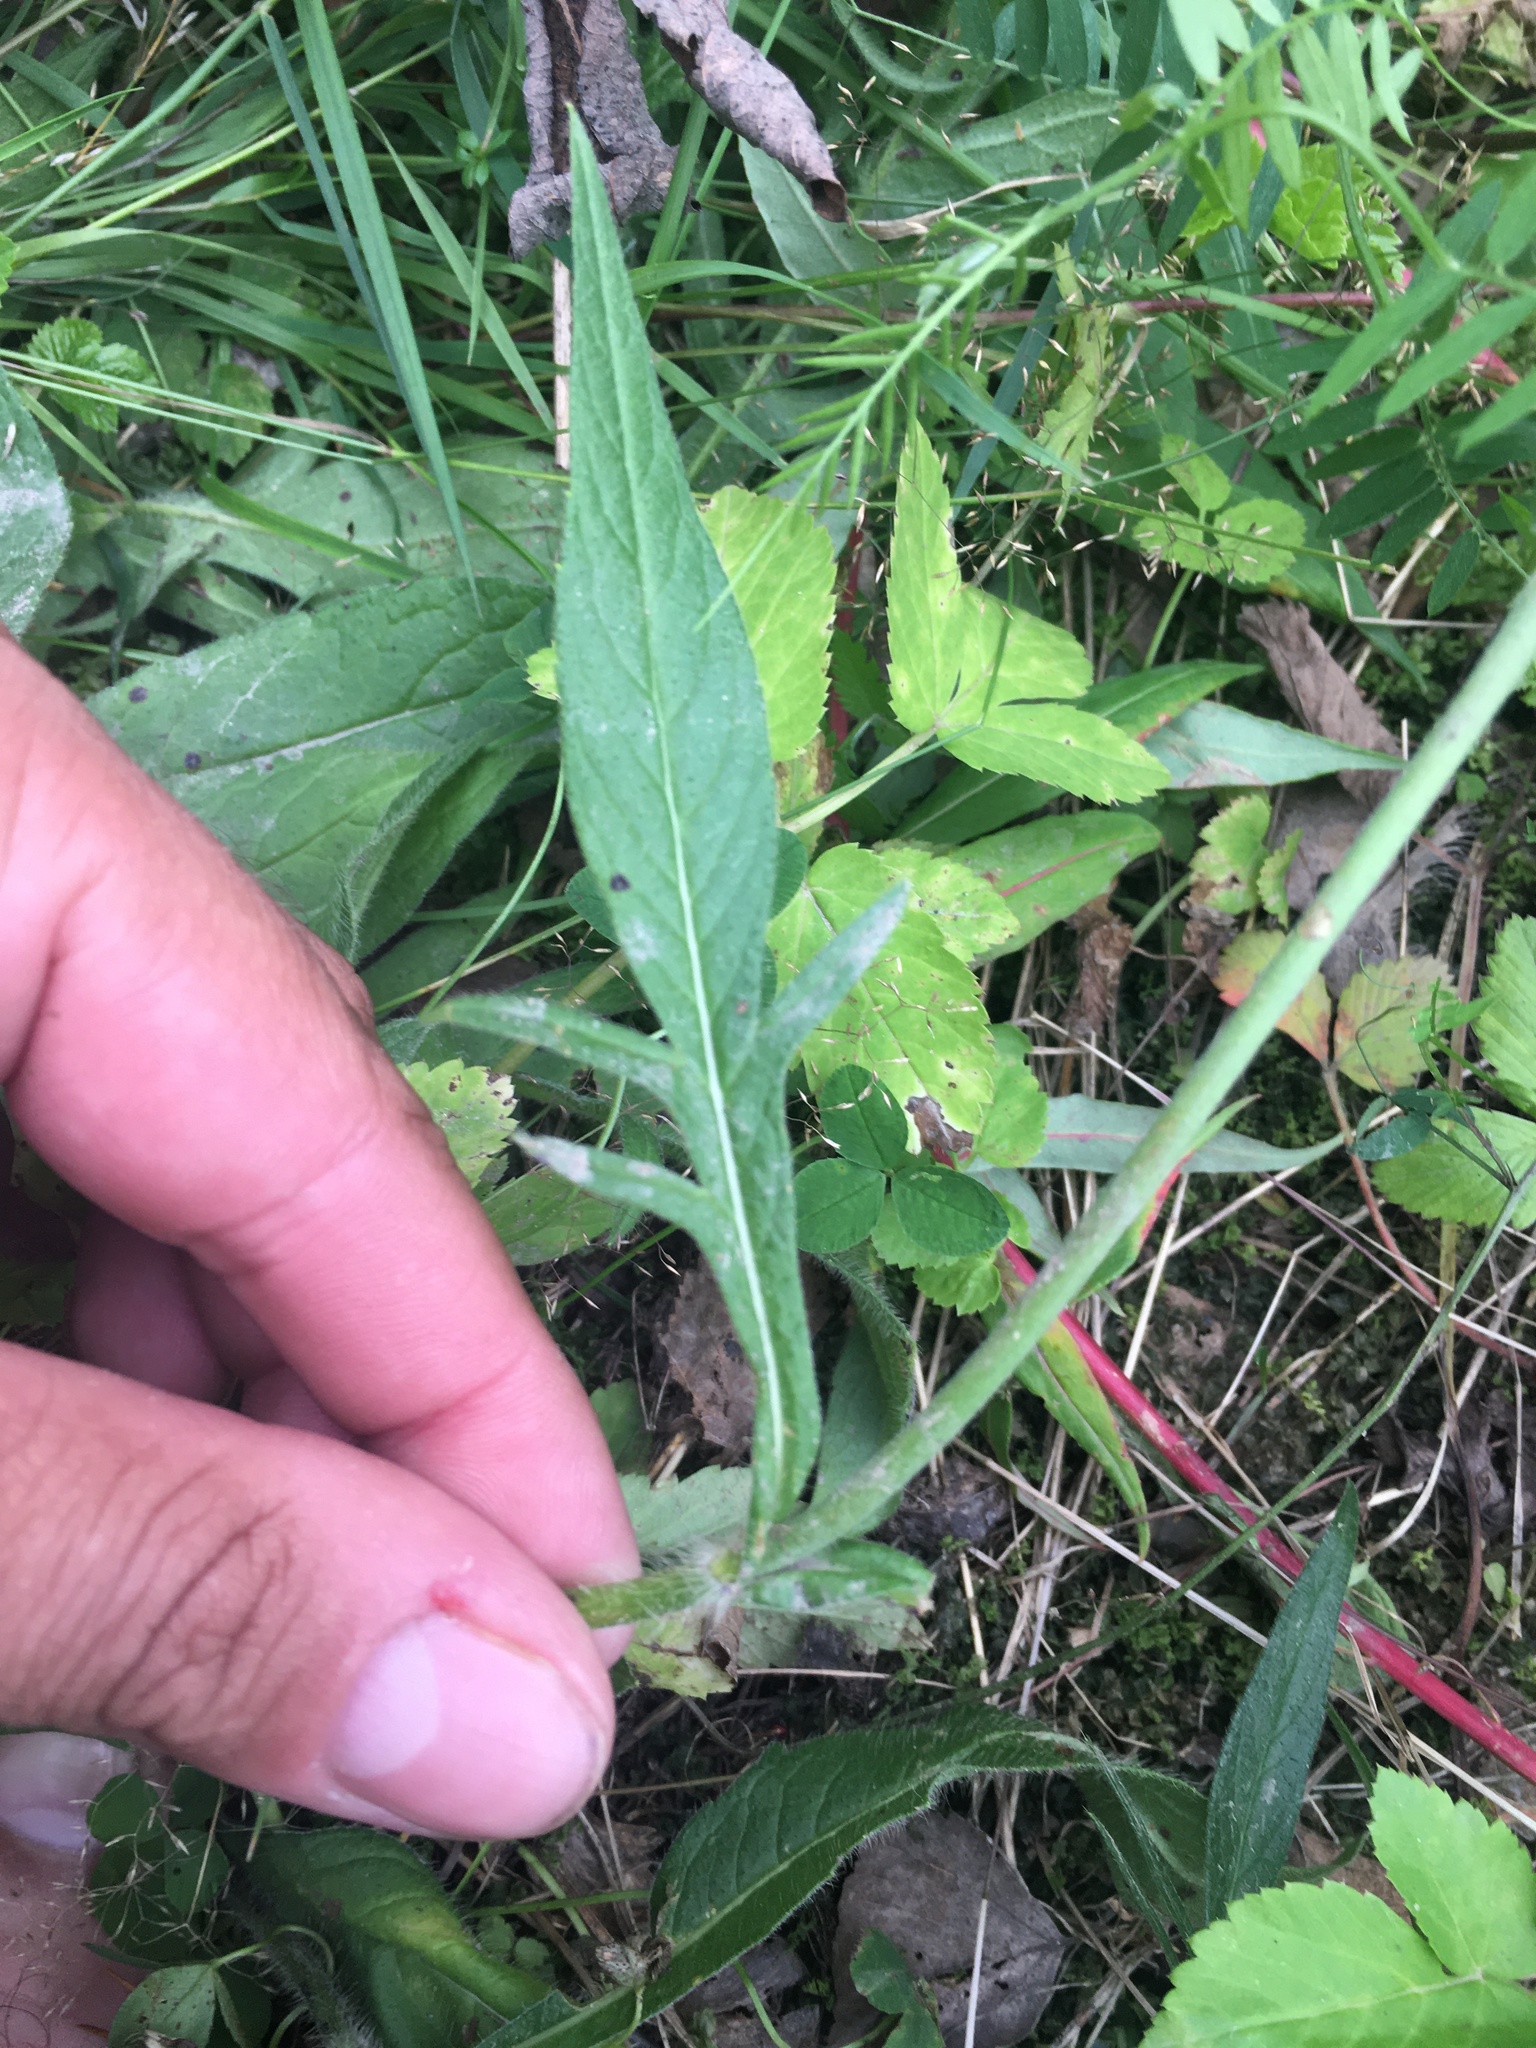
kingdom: Plantae
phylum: Tracheophyta
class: Magnoliopsida
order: Dipsacales
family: Caprifoliaceae
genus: Knautia
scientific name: Knautia arvensis
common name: Field scabiosa
